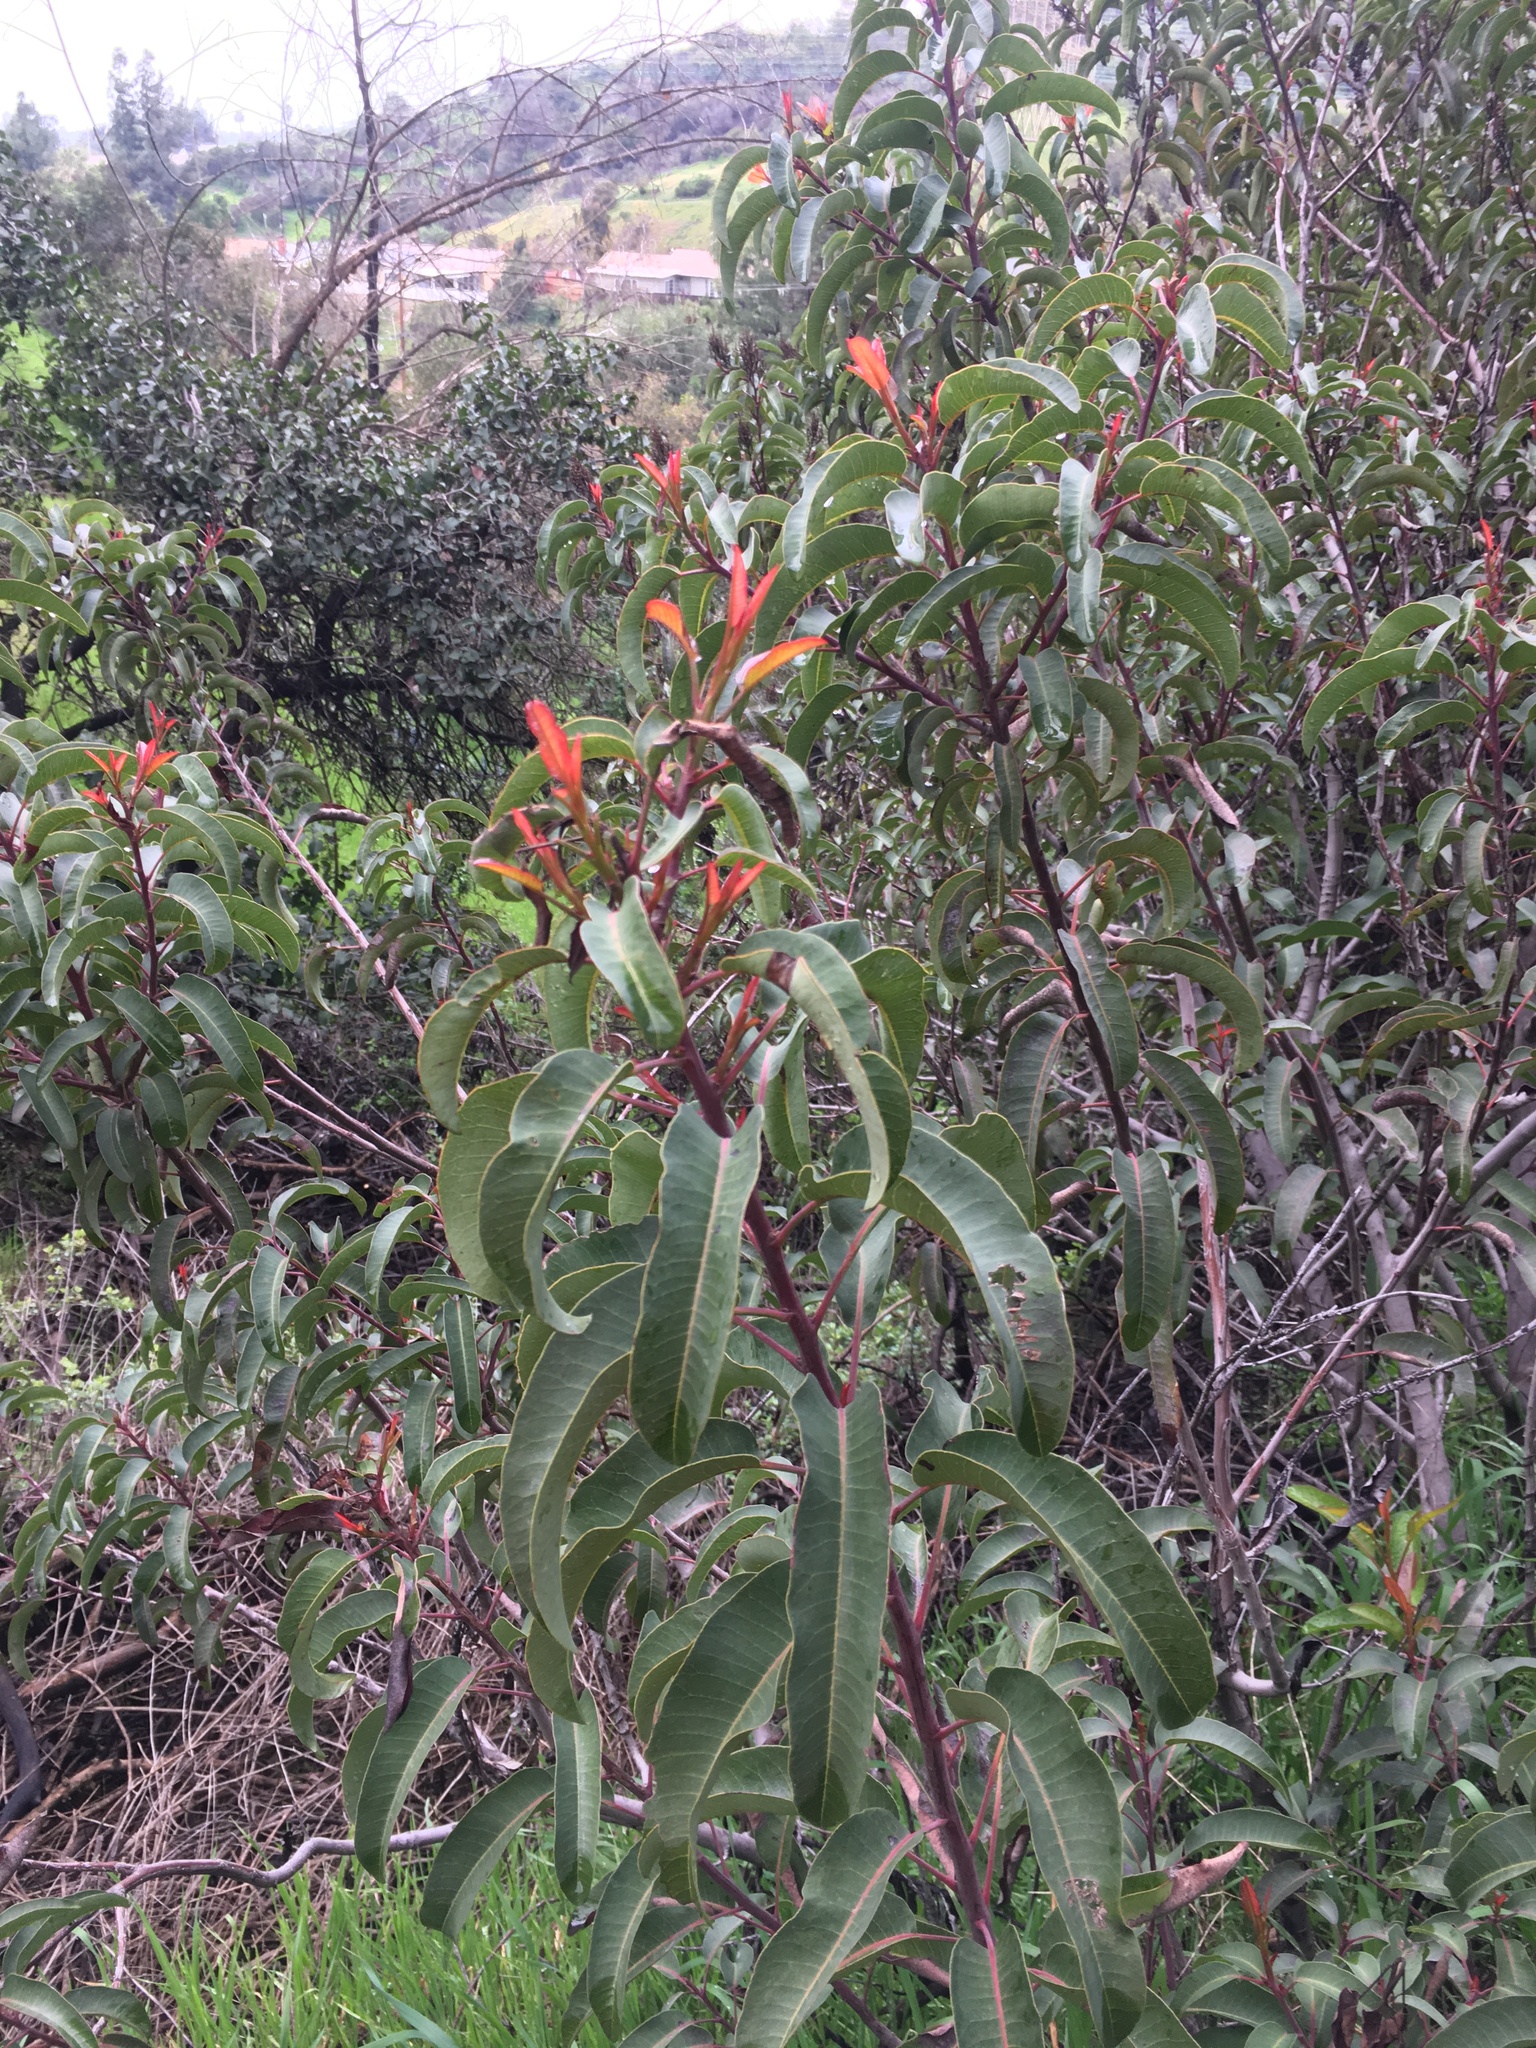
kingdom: Plantae
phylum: Tracheophyta
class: Magnoliopsida
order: Sapindales
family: Anacardiaceae
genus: Malosma
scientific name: Malosma laurina
